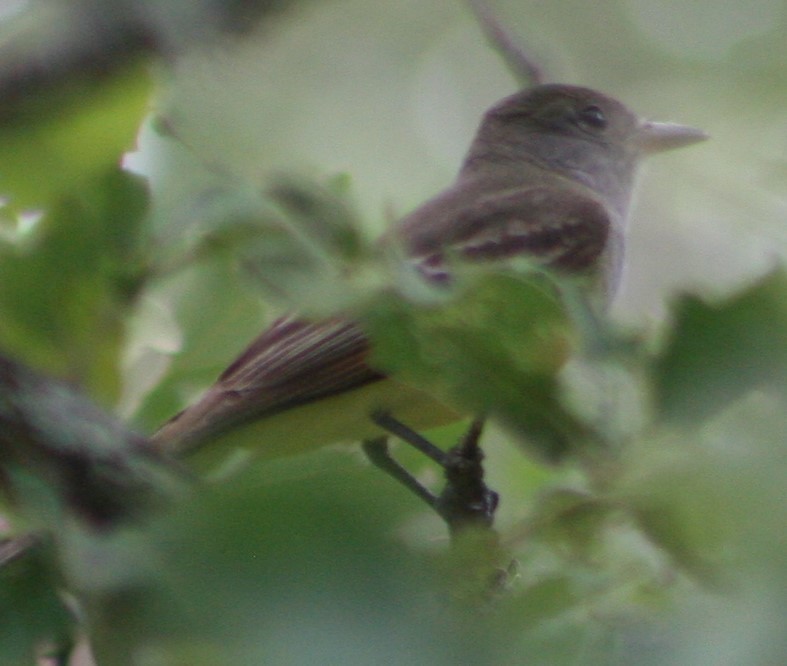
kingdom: Animalia
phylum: Chordata
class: Aves
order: Passeriformes
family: Tyrannidae
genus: Myiarchus
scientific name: Myiarchus crinitus
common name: Great crested flycatcher
